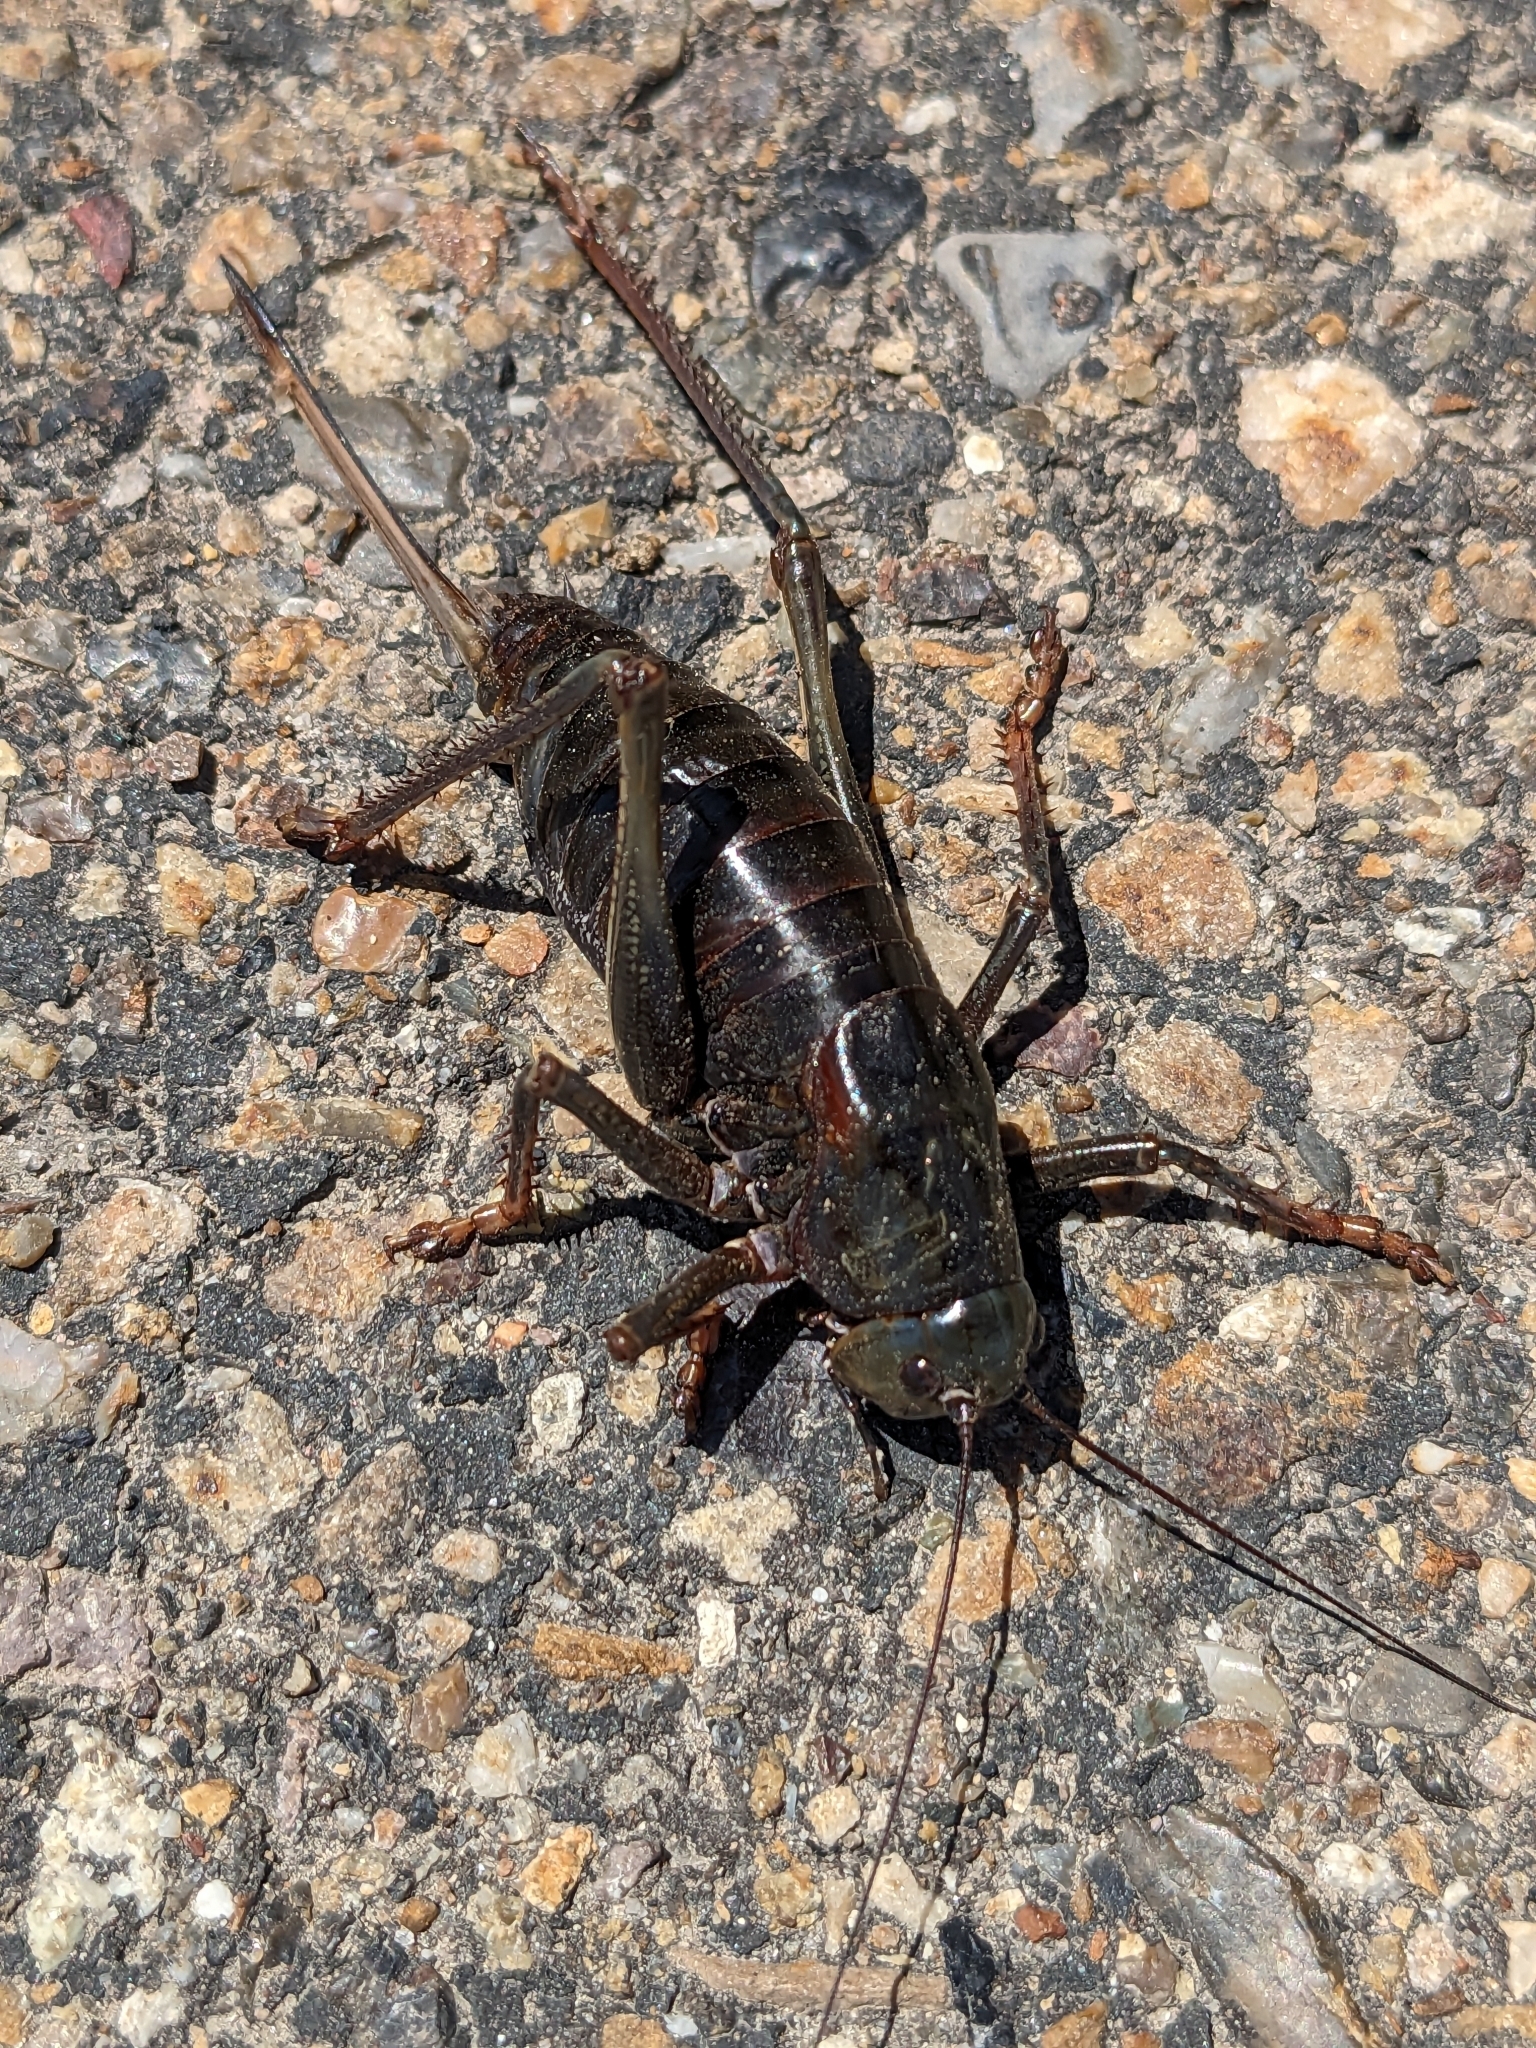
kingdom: Animalia
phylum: Arthropoda
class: Insecta
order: Orthoptera
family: Tettigoniidae
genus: Anabrus
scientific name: Anabrus simplex
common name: Mormon cricket
